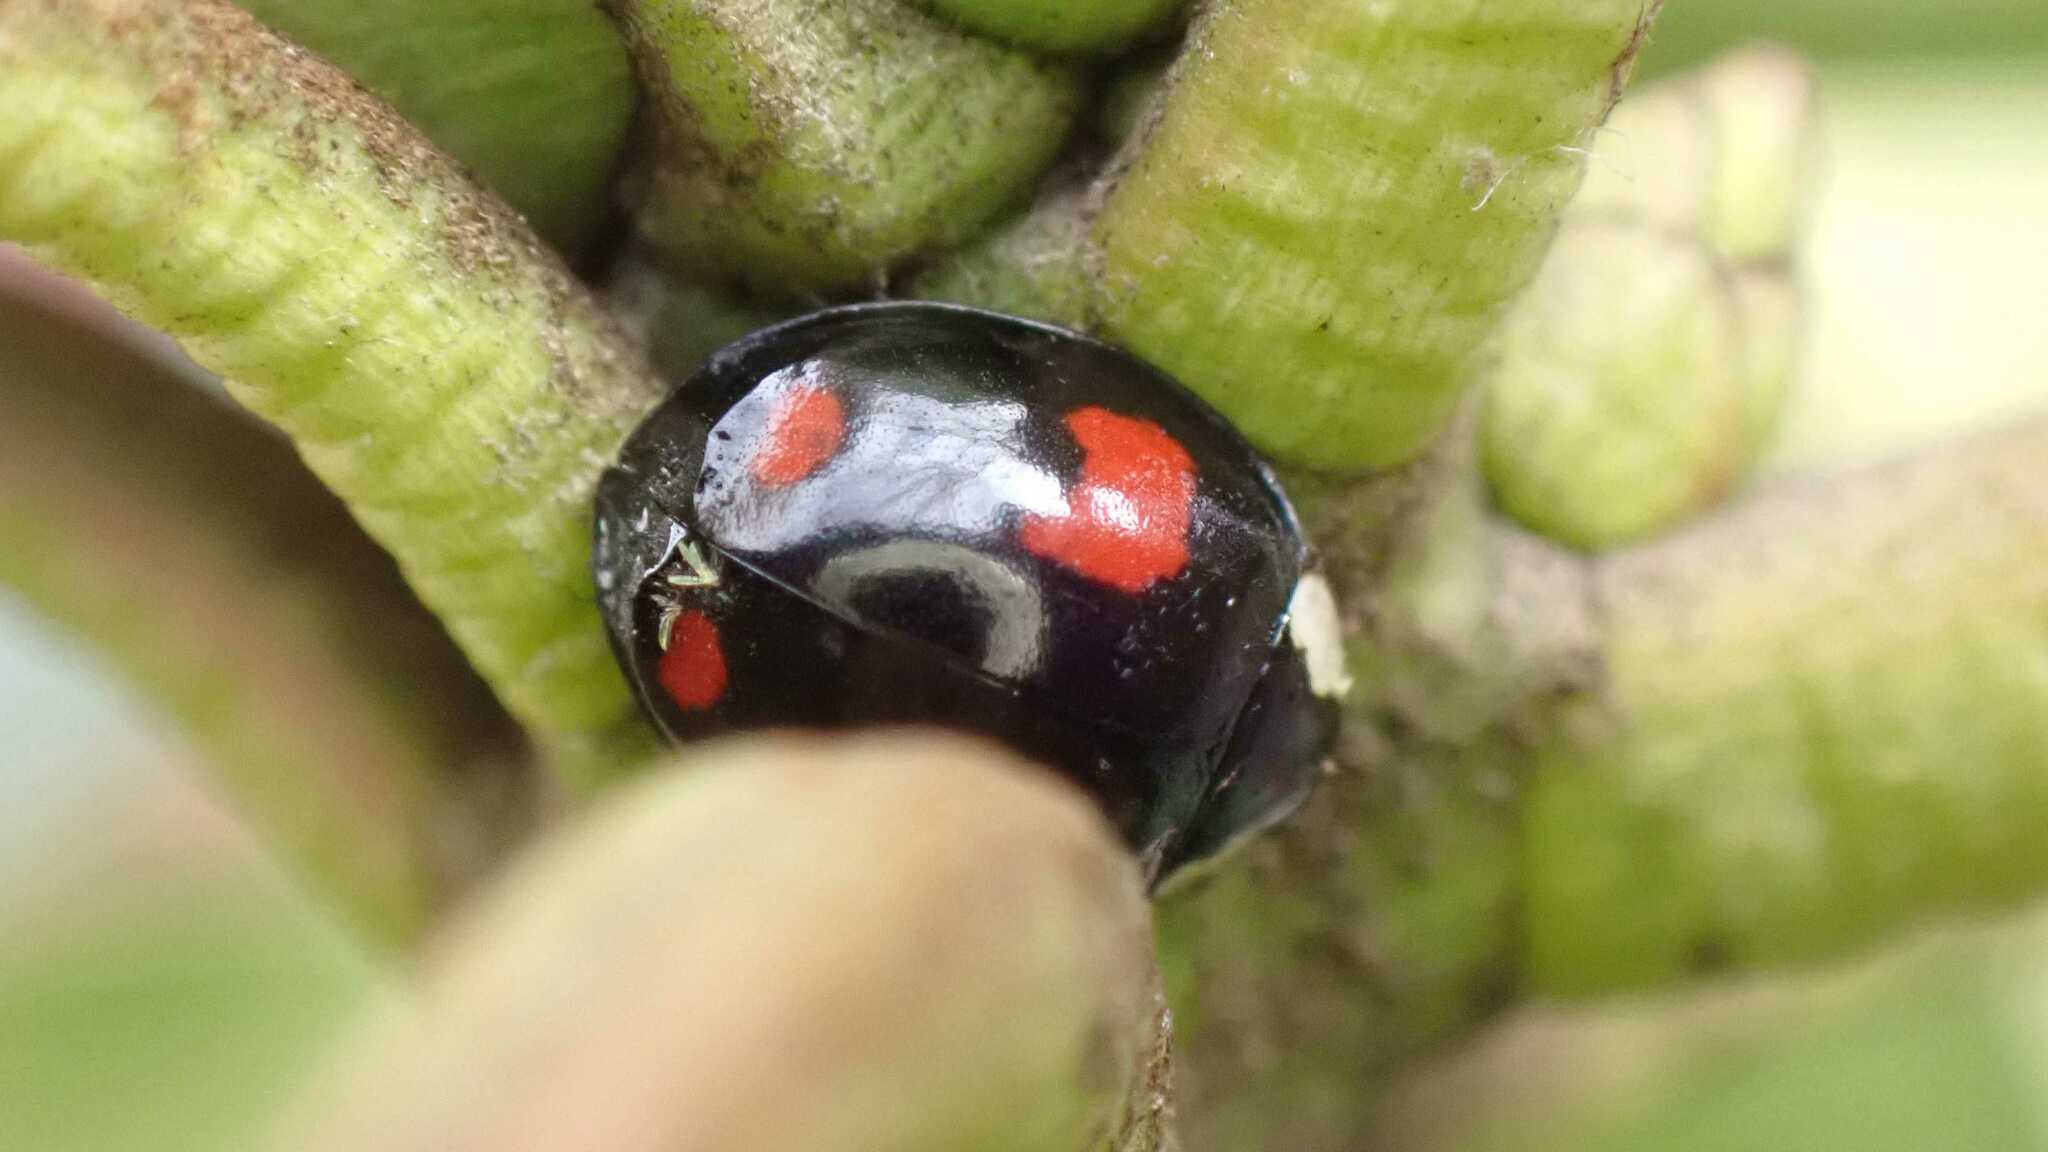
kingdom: Animalia
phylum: Arthropoda
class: Insecta
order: Coleoptera
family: Coccinellidae
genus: Harmonia
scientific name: Harmonia axyridis
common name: Harlequin ladybird
